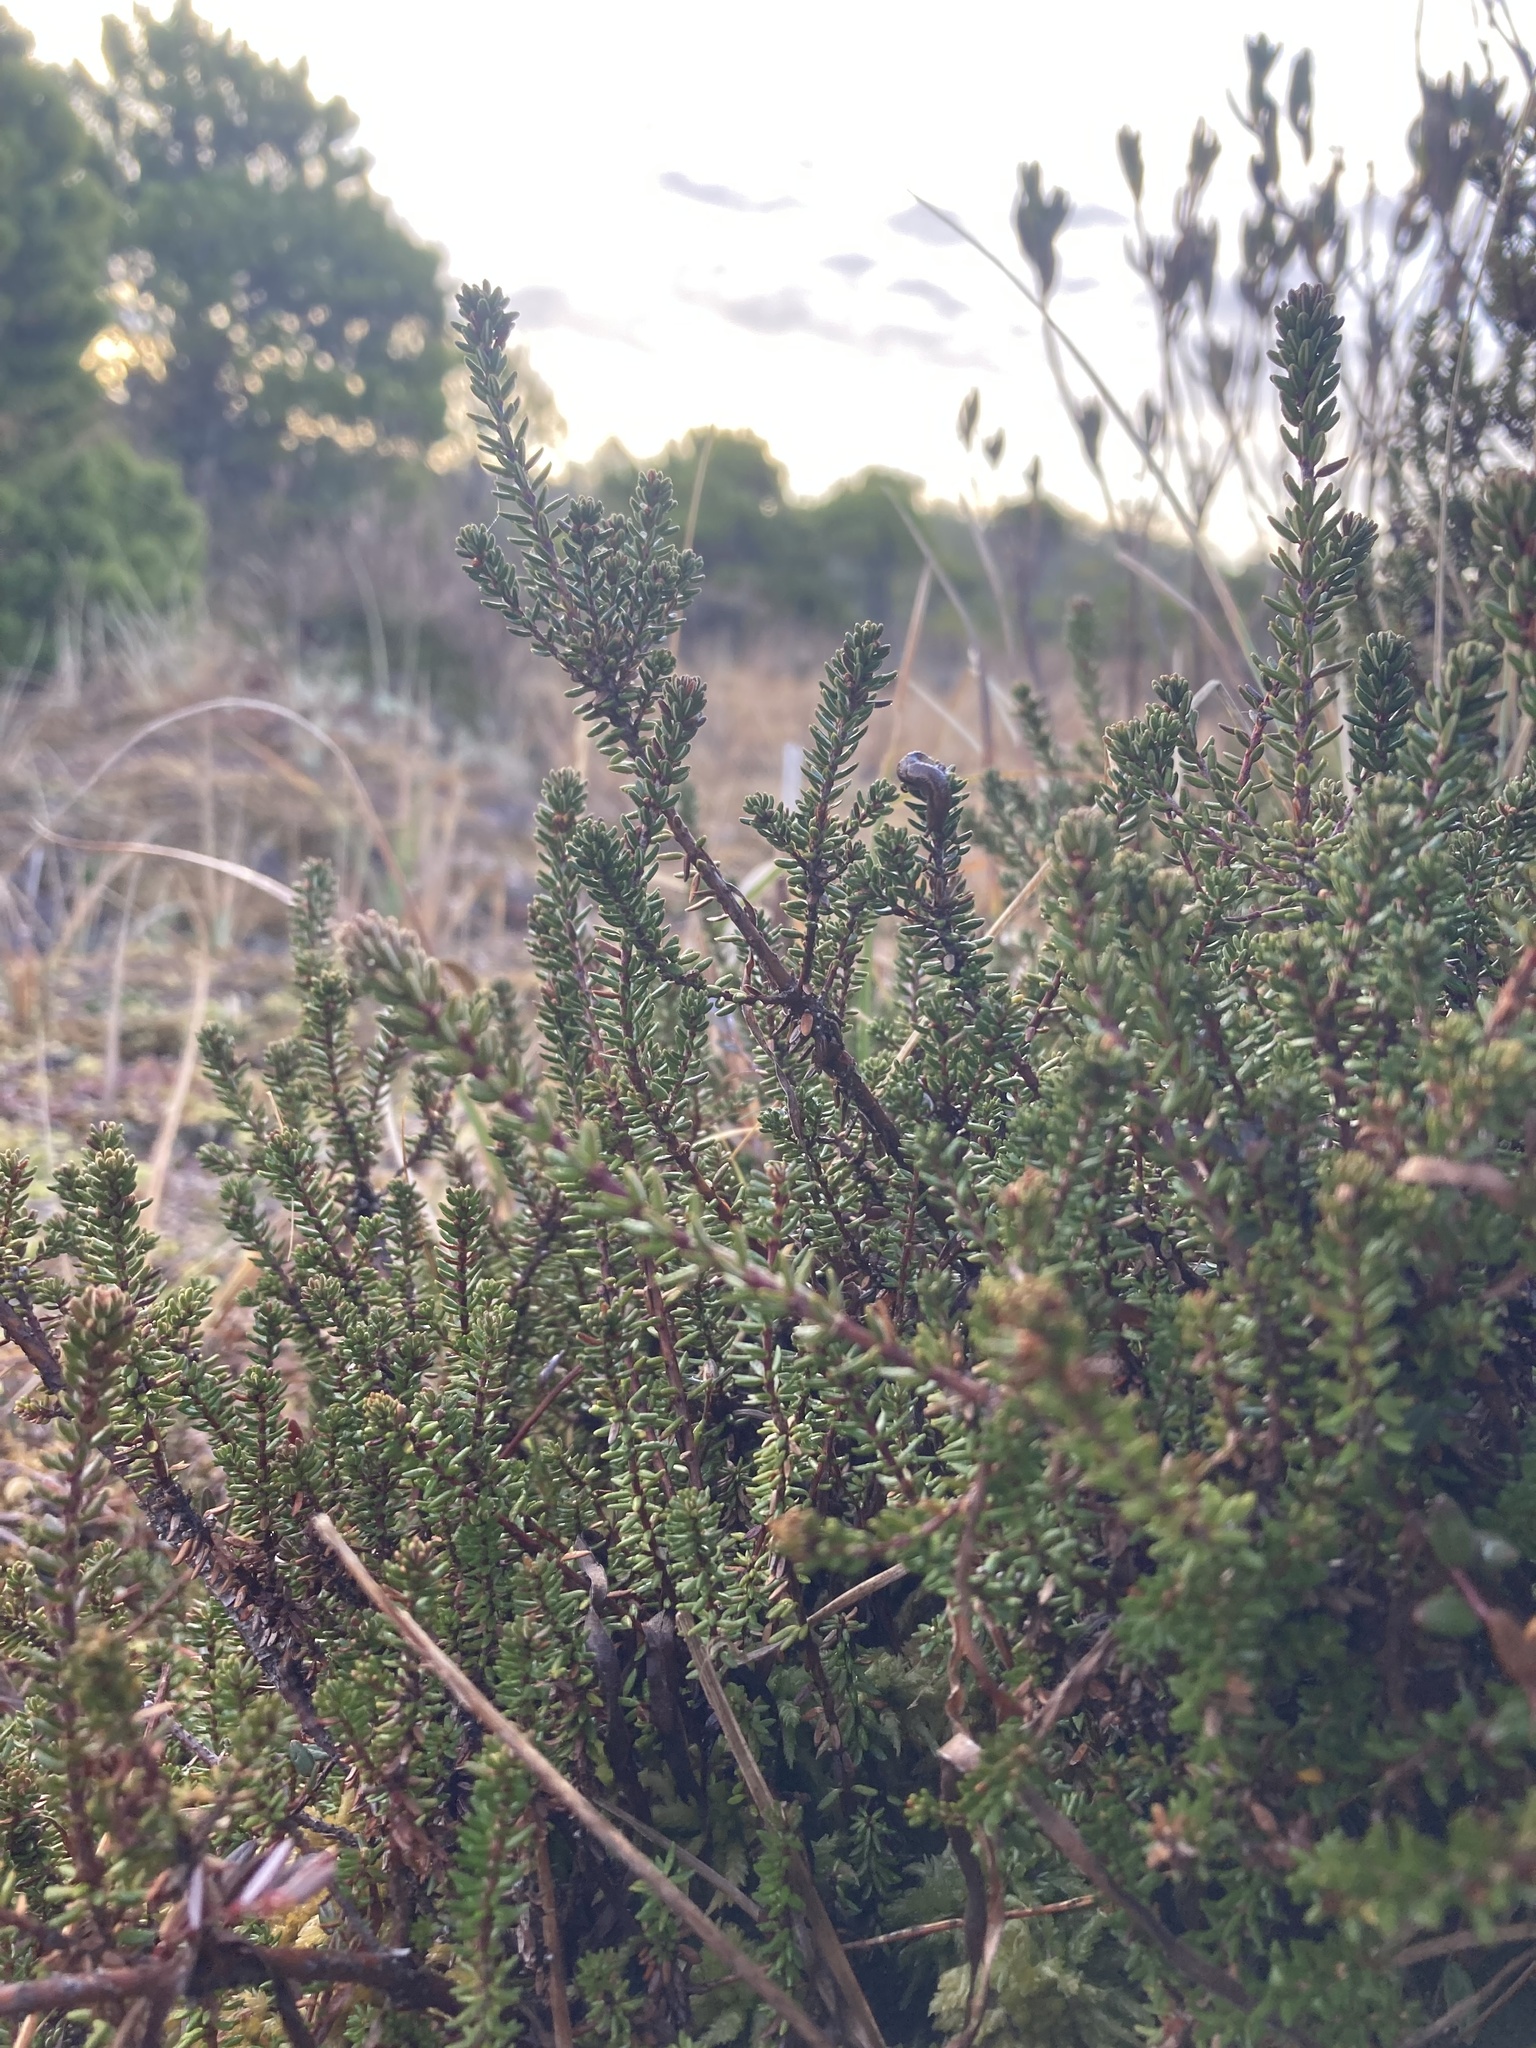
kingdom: Plantae
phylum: Tracheophyta
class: Magnoliopsida
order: Ericales
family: Ericaceae
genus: Empetrum
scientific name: Empetrum nigrum
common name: Black crowberry
